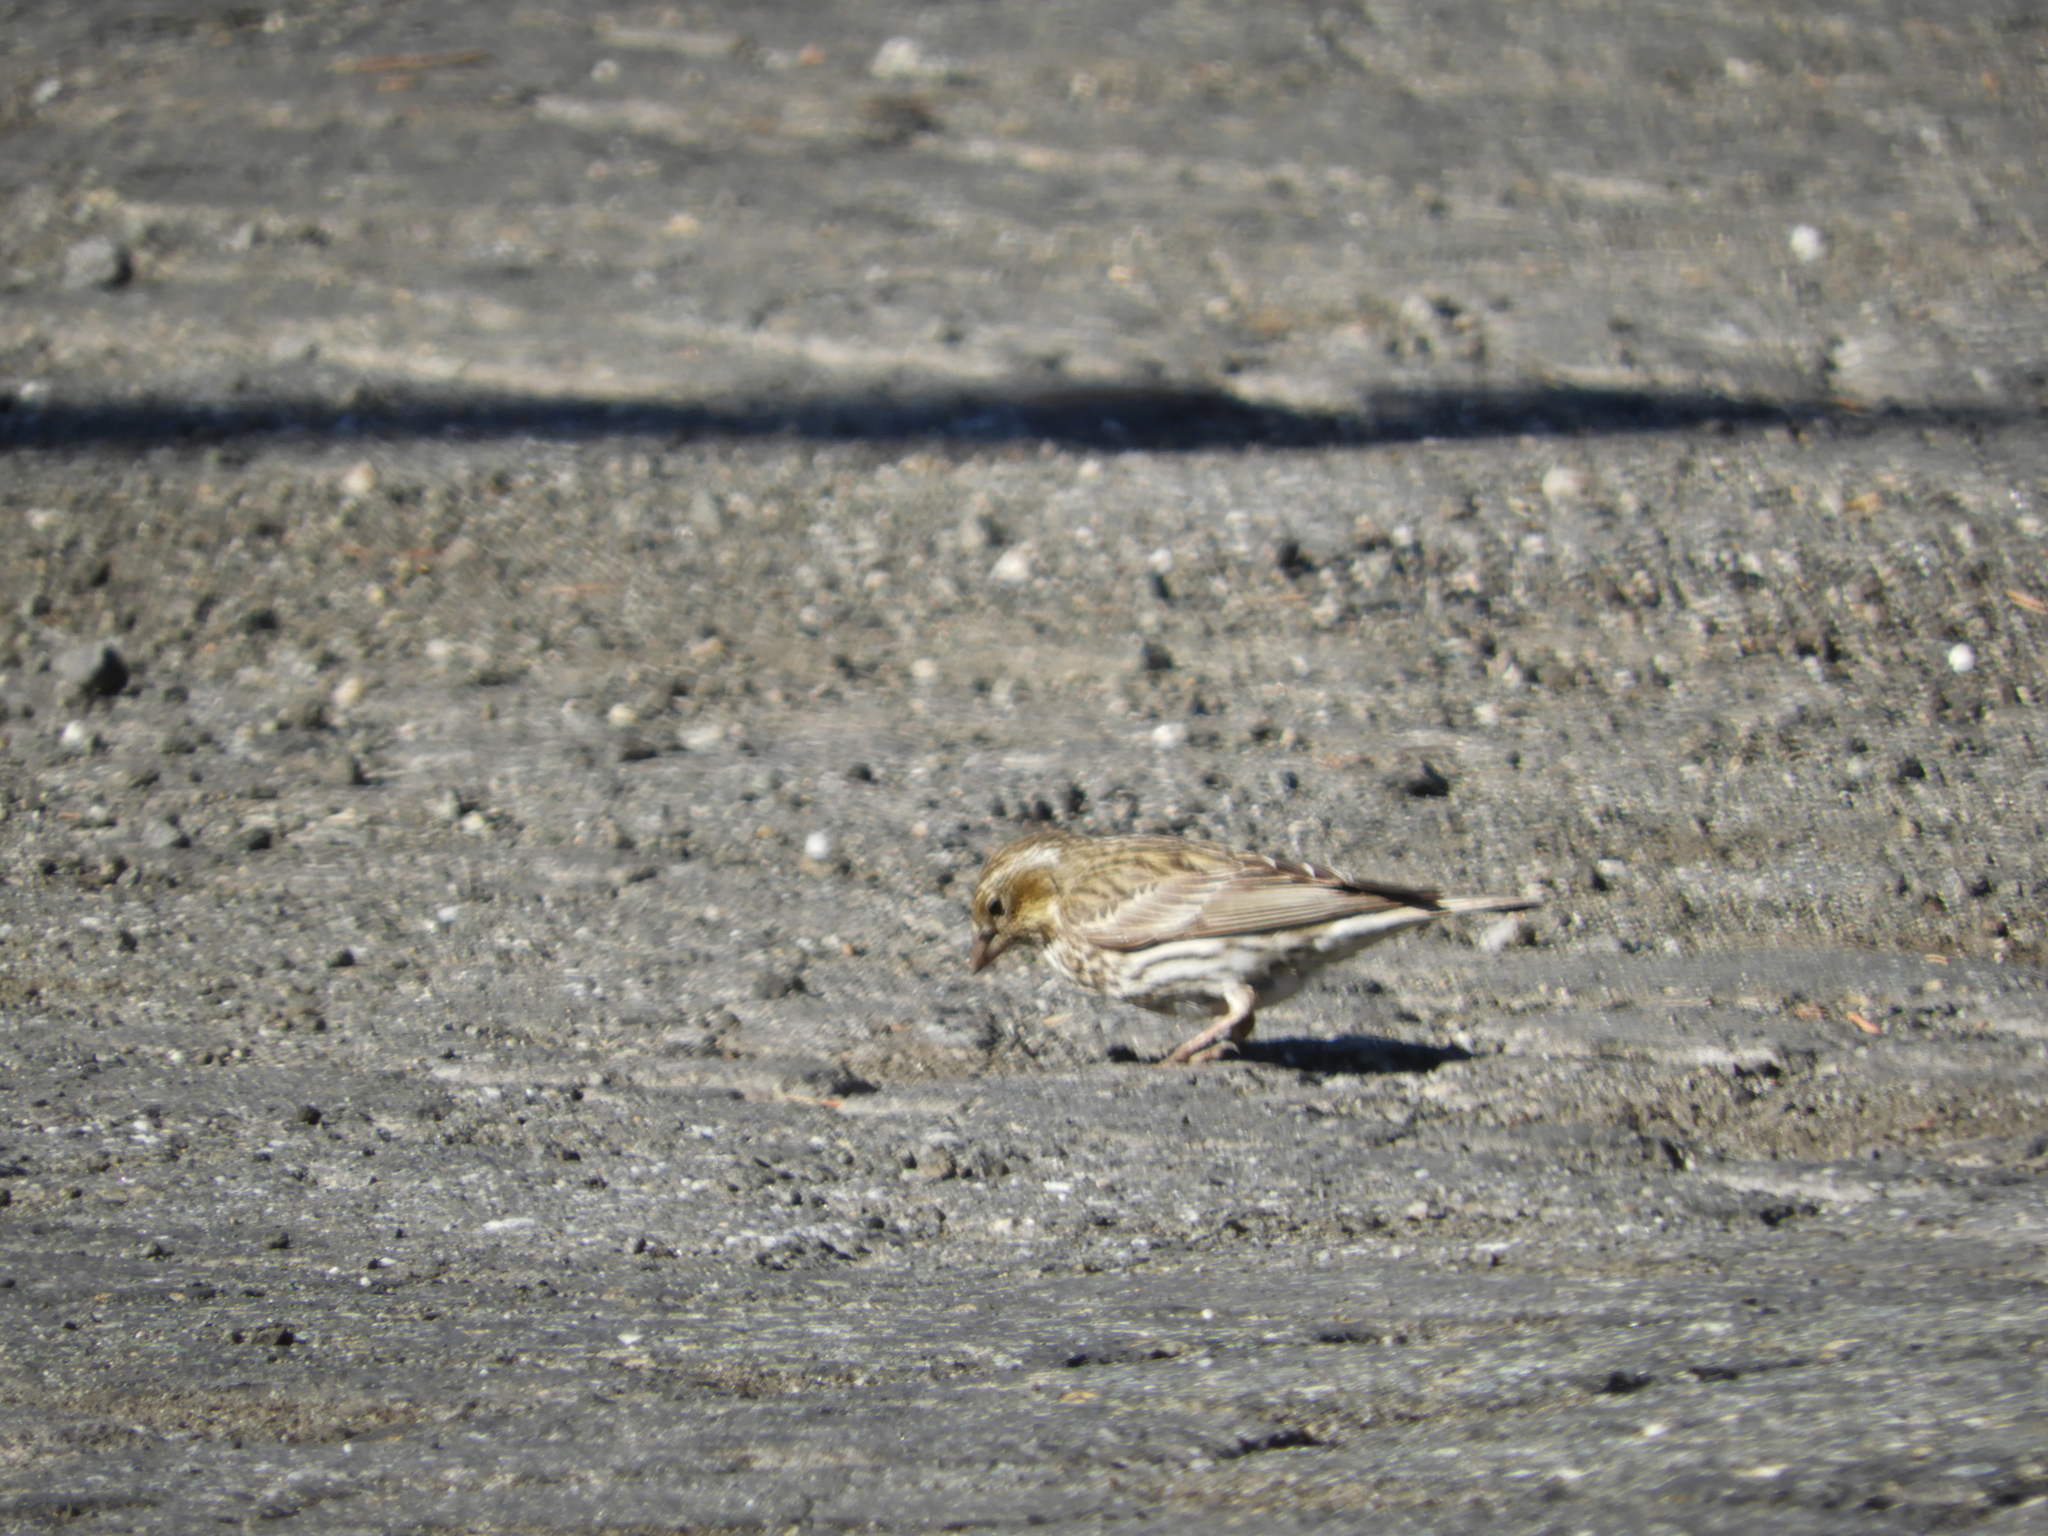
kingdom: Animalia
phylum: Chordata
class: Aves
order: Passeriformes
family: Fringillidae
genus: Haemorhous
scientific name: Haemorhous cassinii
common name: Cassin's finch
